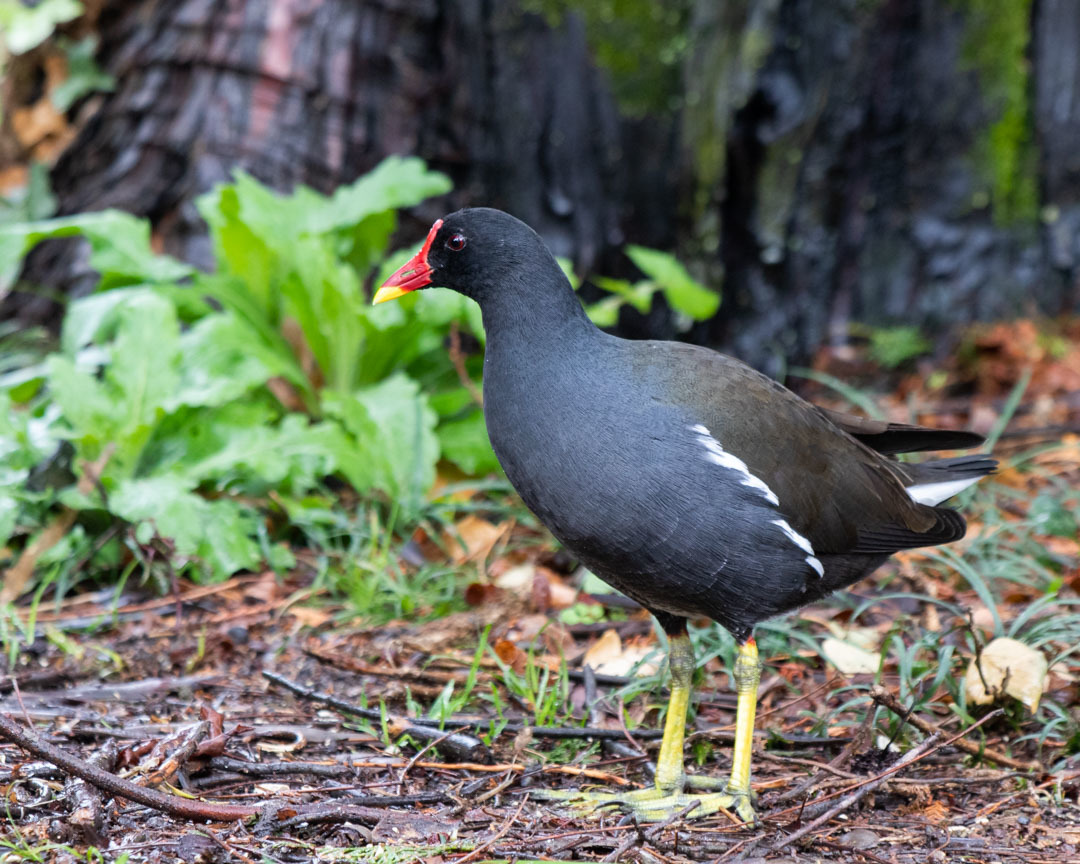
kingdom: Animalia
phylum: Chordata
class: Aves
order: Gruiformes
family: Rallidae
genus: Gallinula
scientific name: Gallinula chloropus
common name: Common moorhen
